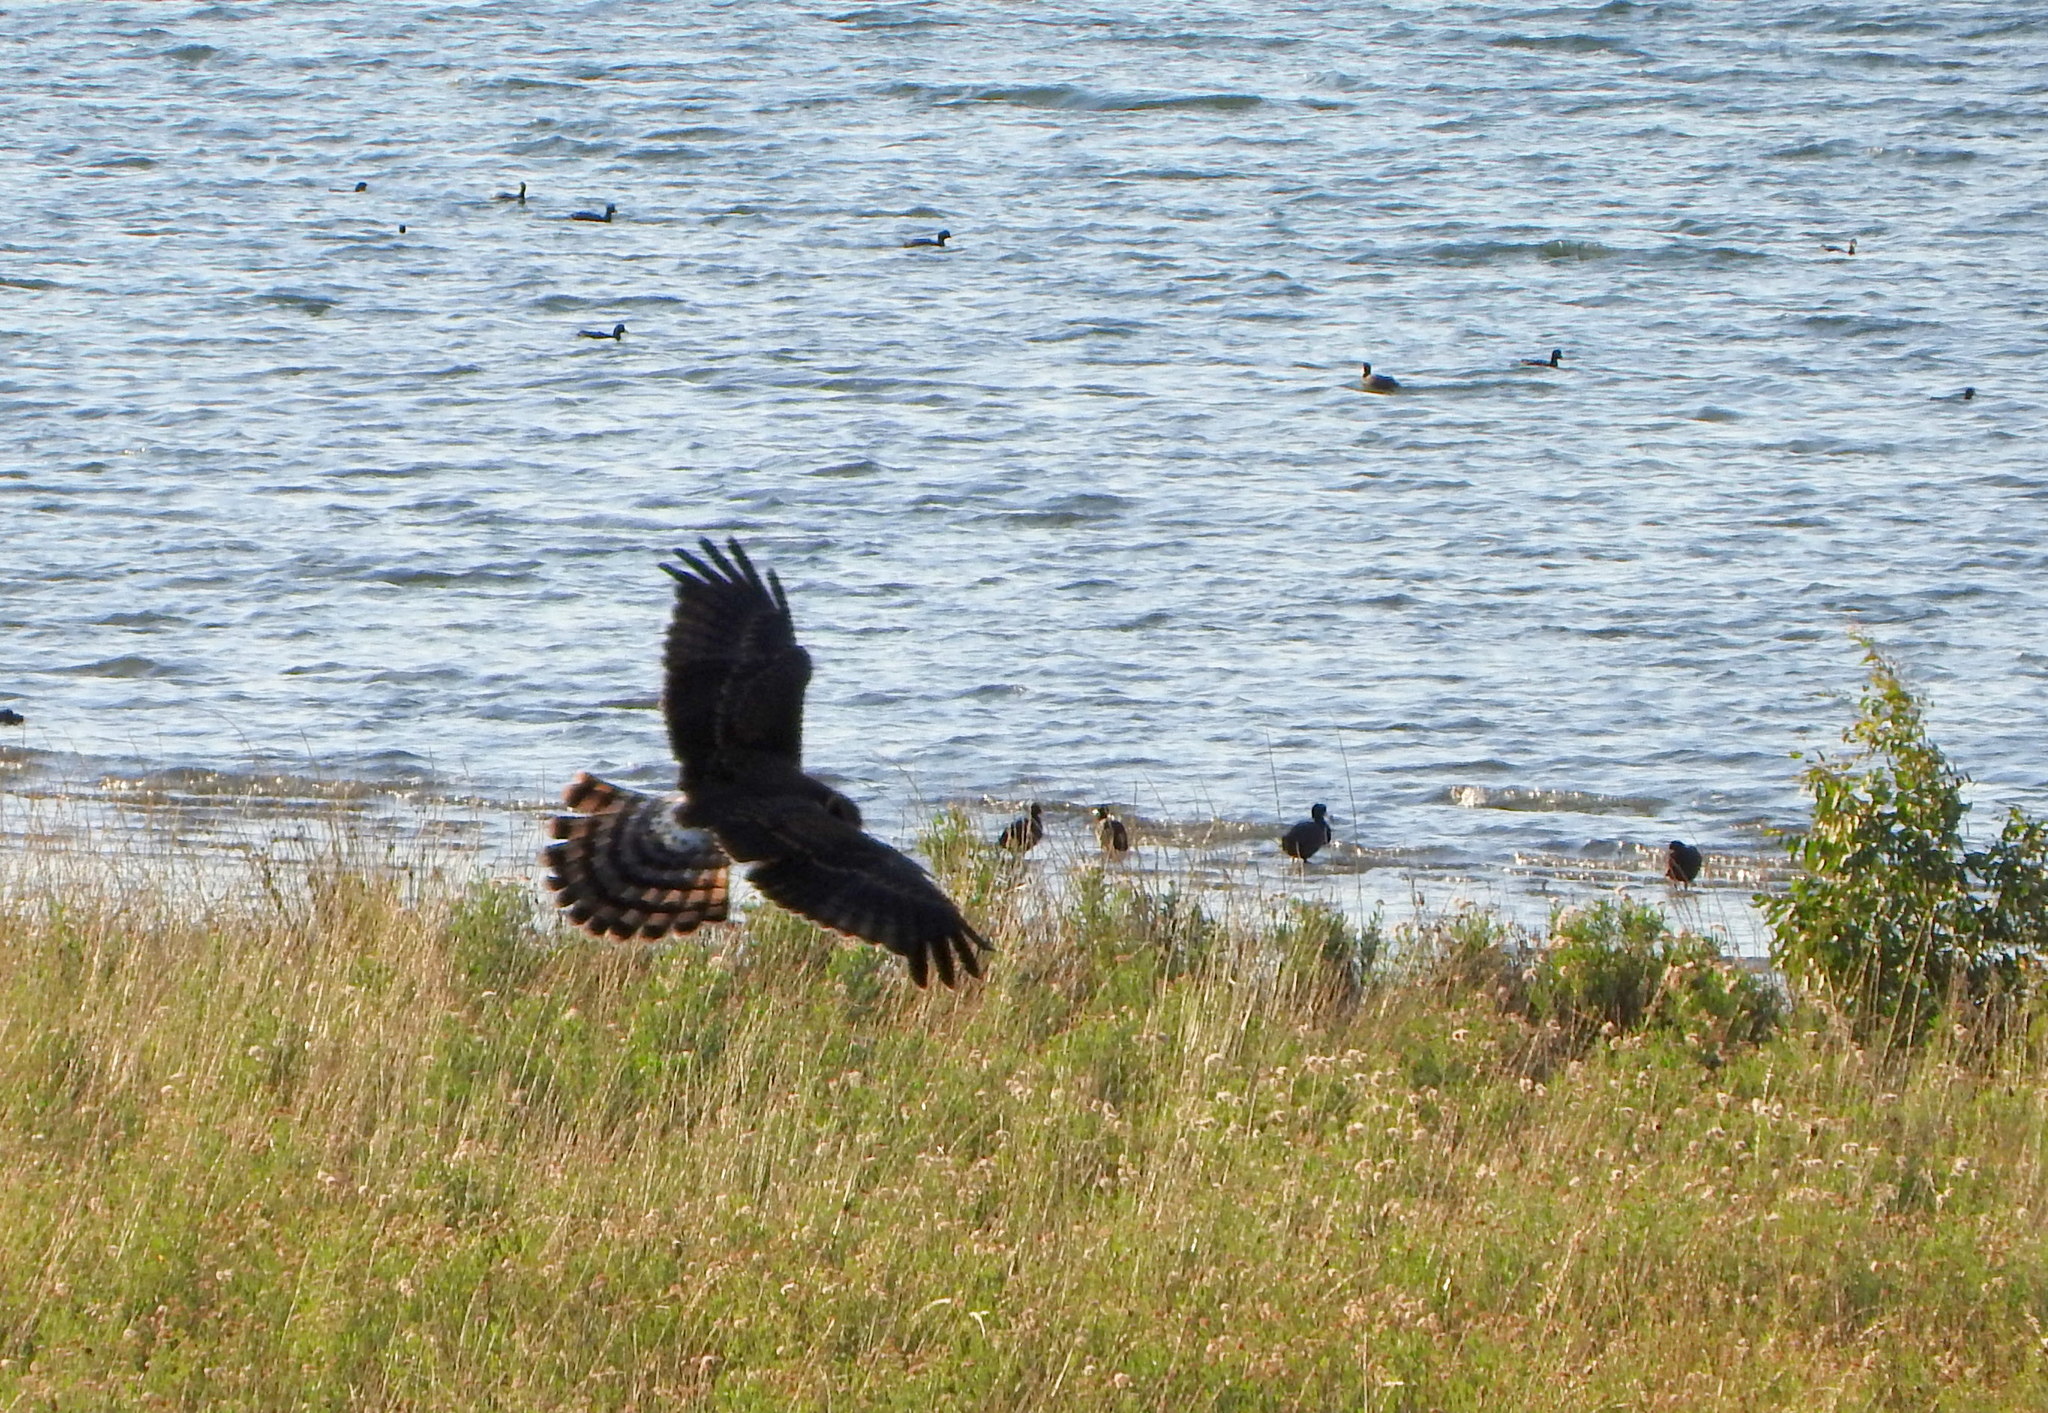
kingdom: Animalia
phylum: Chordata
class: Aves
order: Accipitriformes
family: Accipitridae
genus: Circus
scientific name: Circus buffoni
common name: Long-winged harrier
